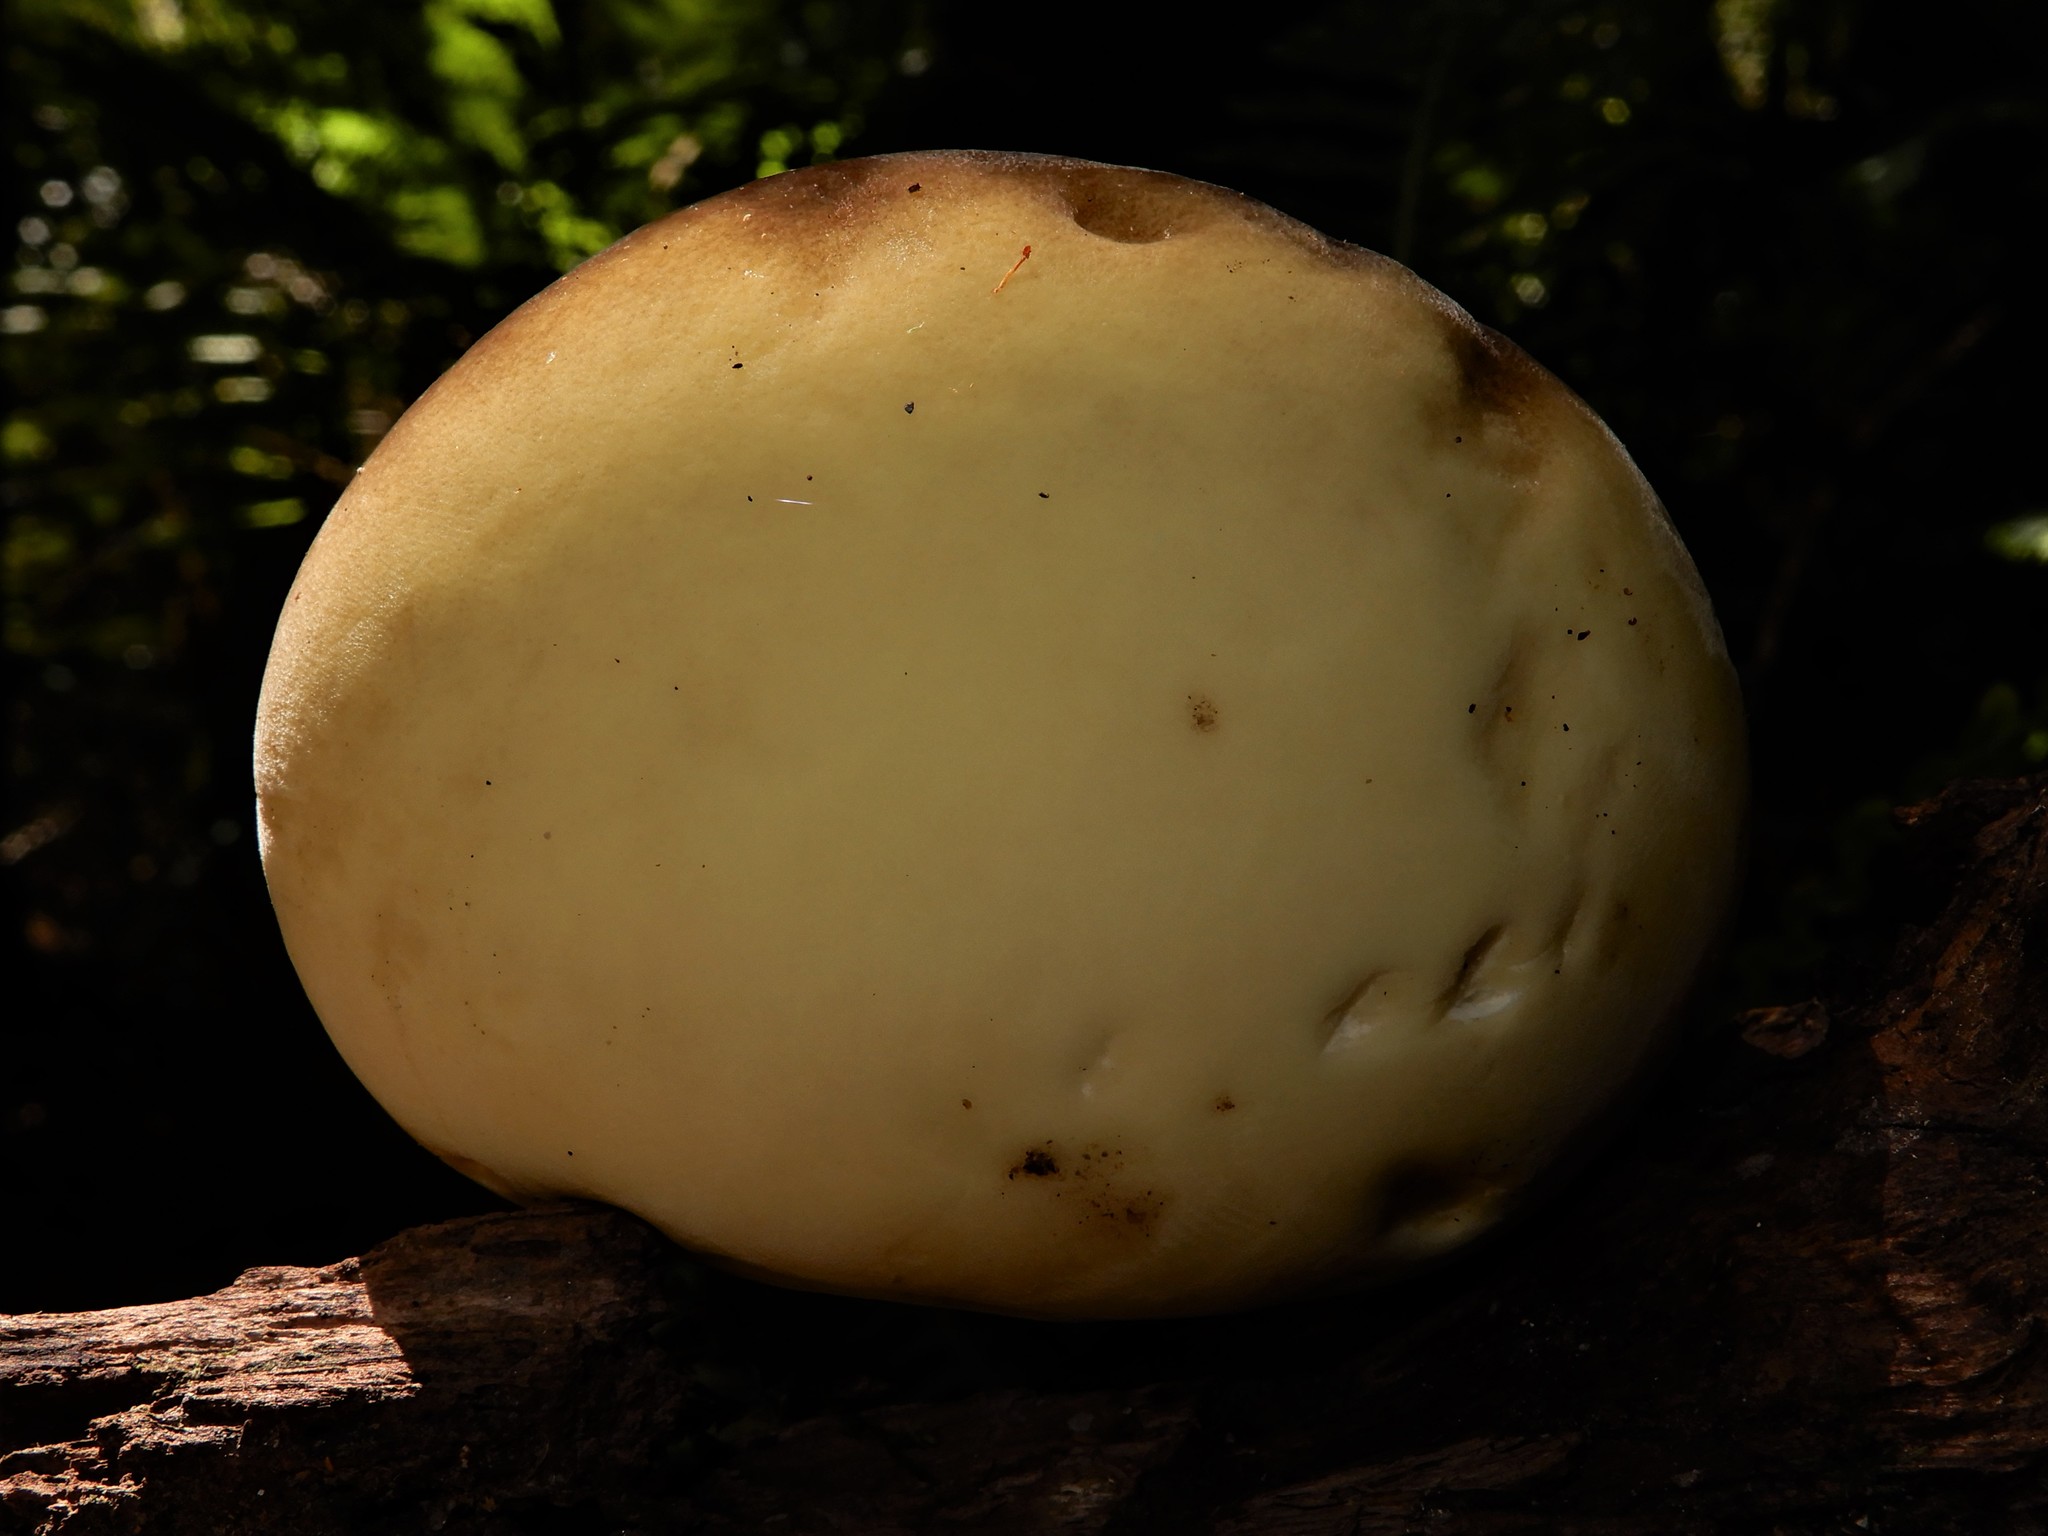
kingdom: Fungi
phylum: Basidiomycota
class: Agaricomycetes
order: Polyporales
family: Laetiporaceae
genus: Laetiporus
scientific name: Laetiporus portentosus
